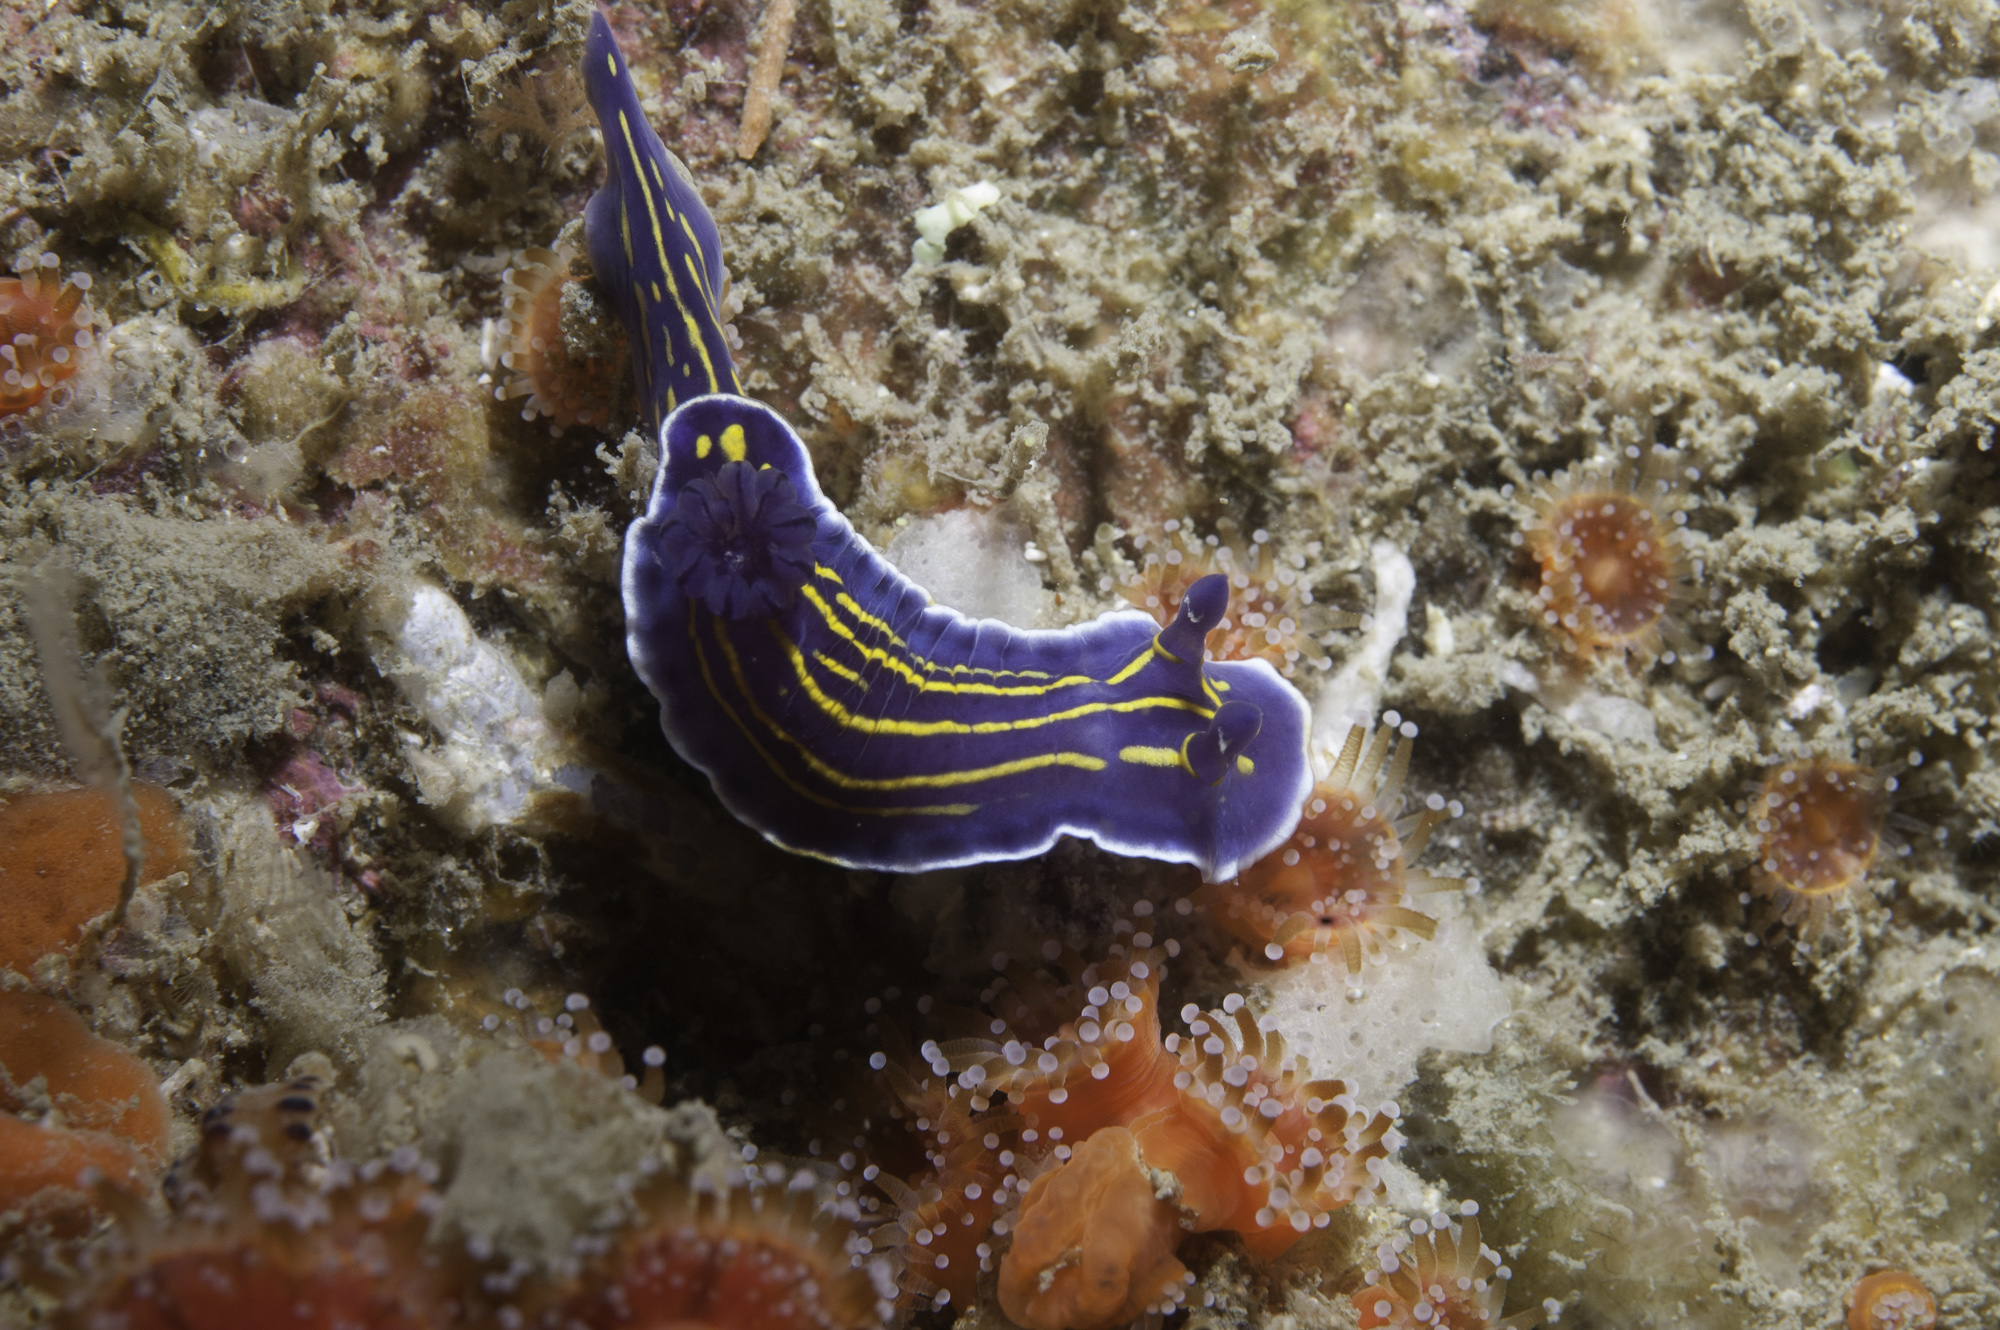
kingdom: Animalia
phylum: Mollusca
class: Gastropoda
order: Nudibranchia
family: Chromodorididae
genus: Felimare
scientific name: Felimare lajensis
